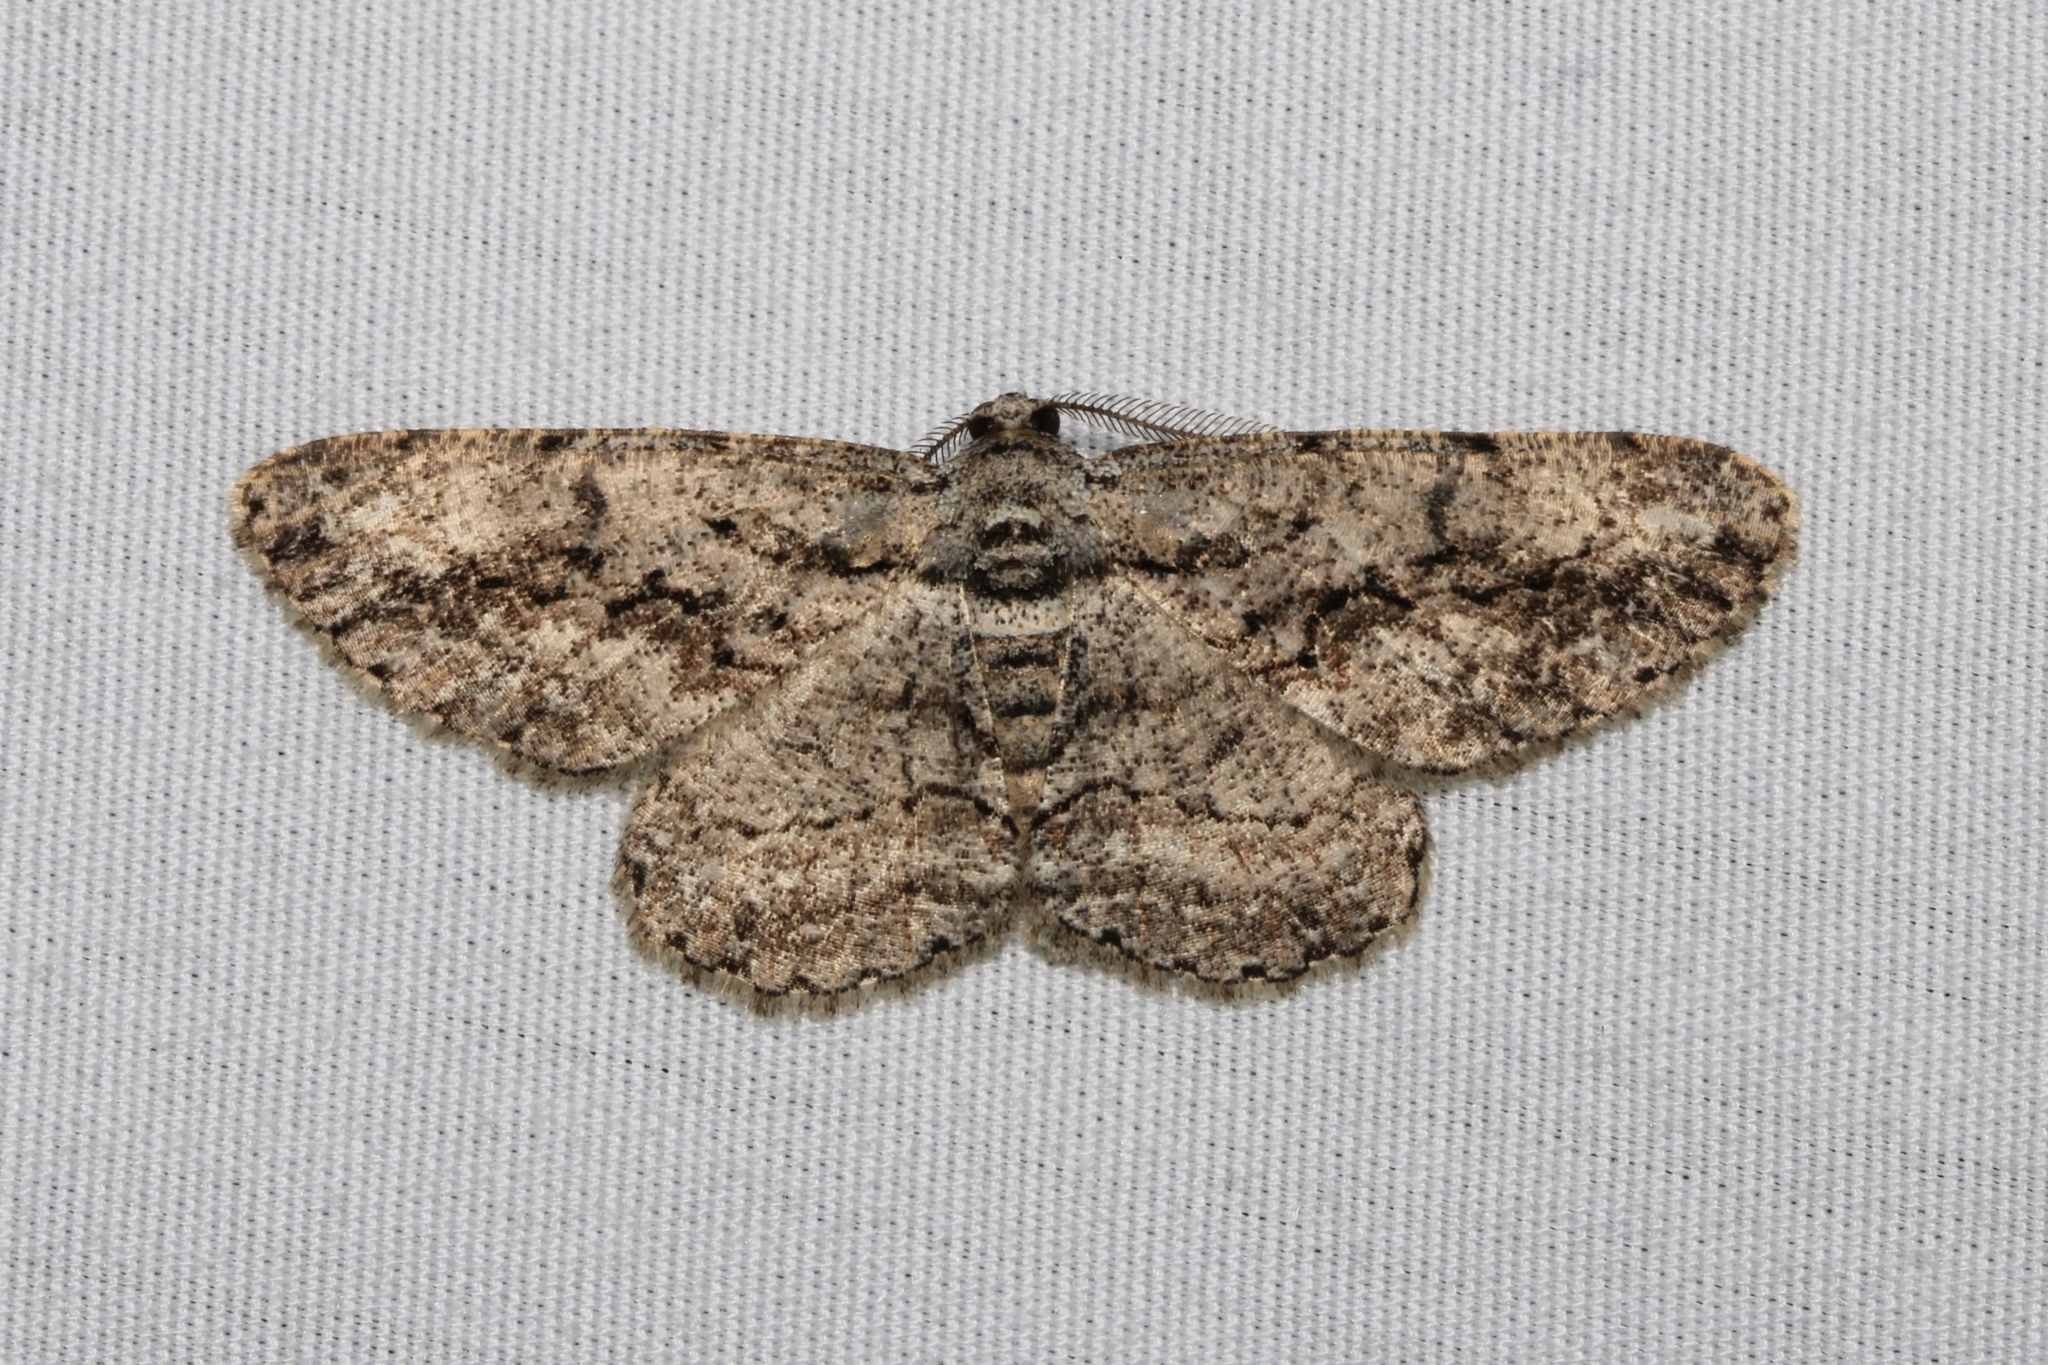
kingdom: Animalia
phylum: Arthropoda
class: Insecta
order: Lepidoptera
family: Geometridae
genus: Anavitrinella
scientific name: Anavitrinella pampinaria
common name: Common gray
